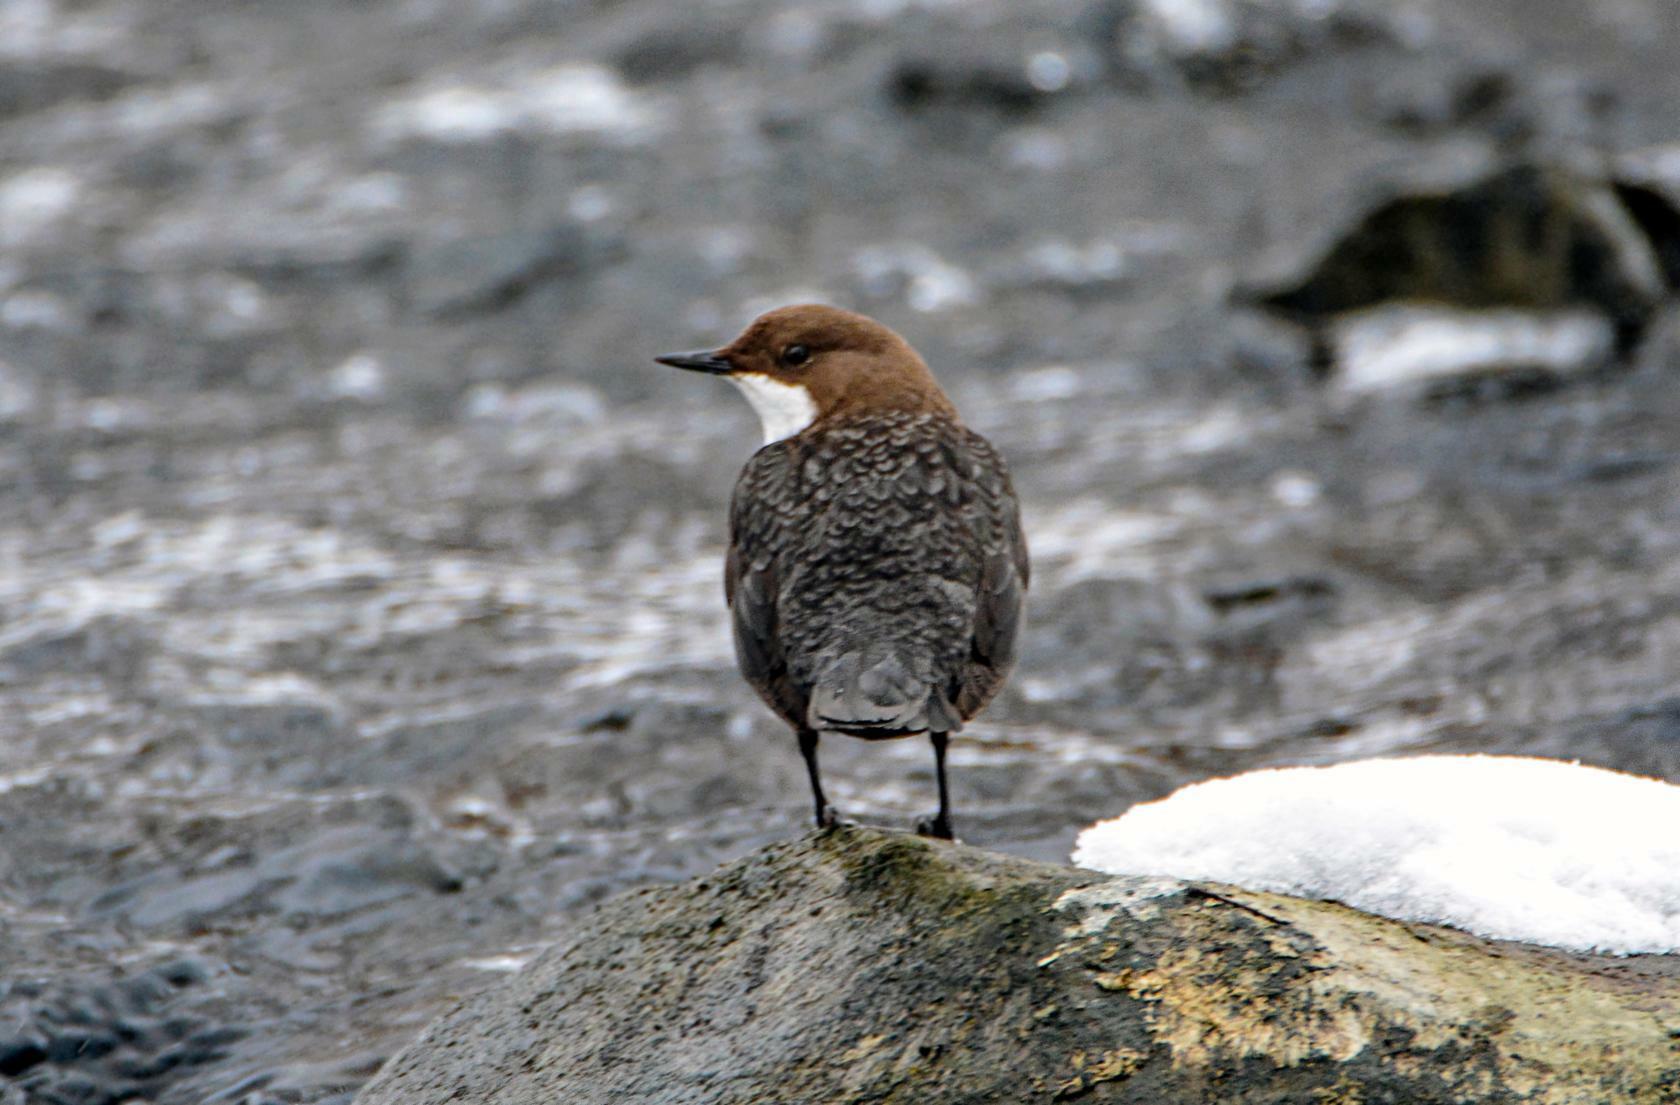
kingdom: Animalia
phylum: Chordata
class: Aves
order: Passeriformes
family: Cinclidae
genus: Cinclus
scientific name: Cinclus cinclus
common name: White-throated dipper
